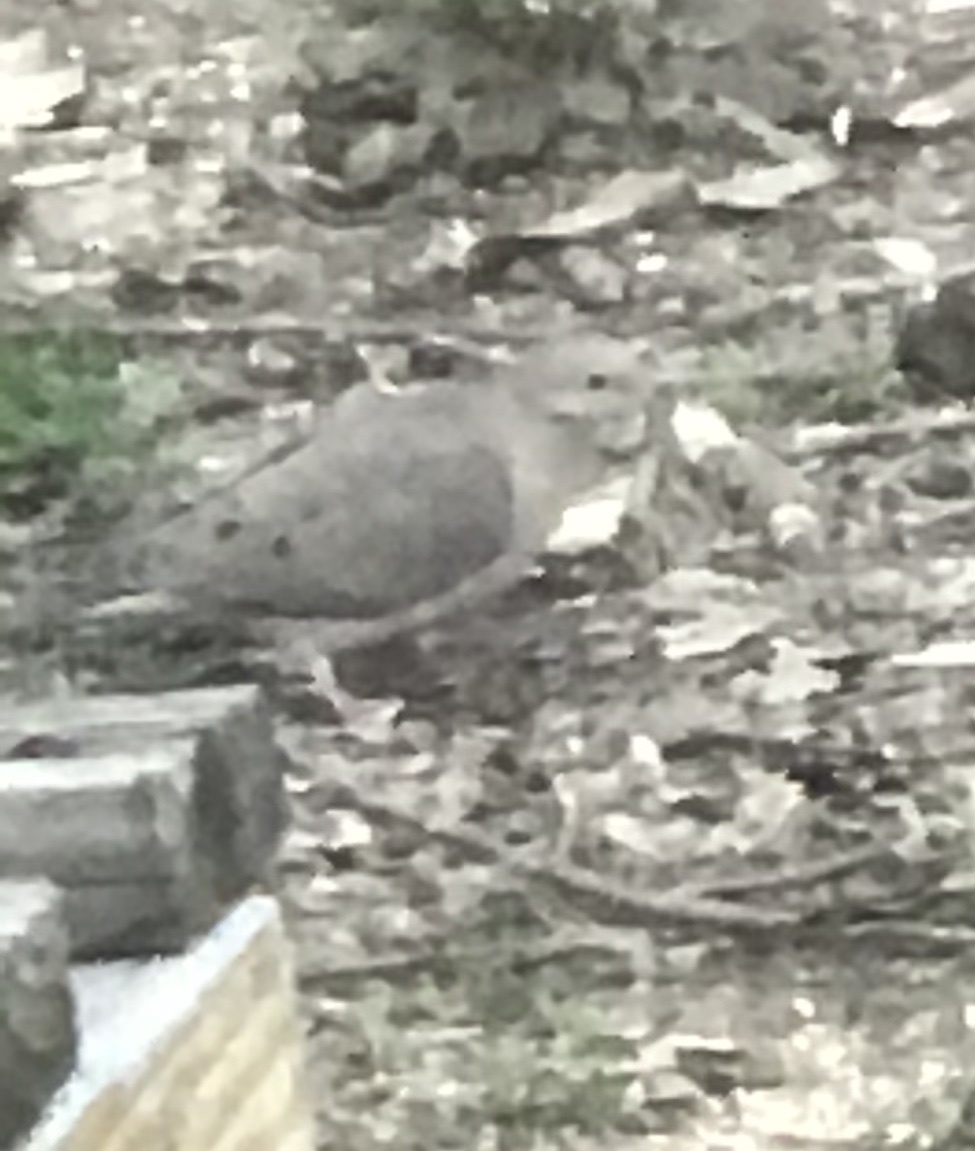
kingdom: Animalia
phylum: Chordata
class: Aves
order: Columbiformes
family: Columbidae
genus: Zenaida
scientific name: Zenaida macroura
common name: Mourning dove
